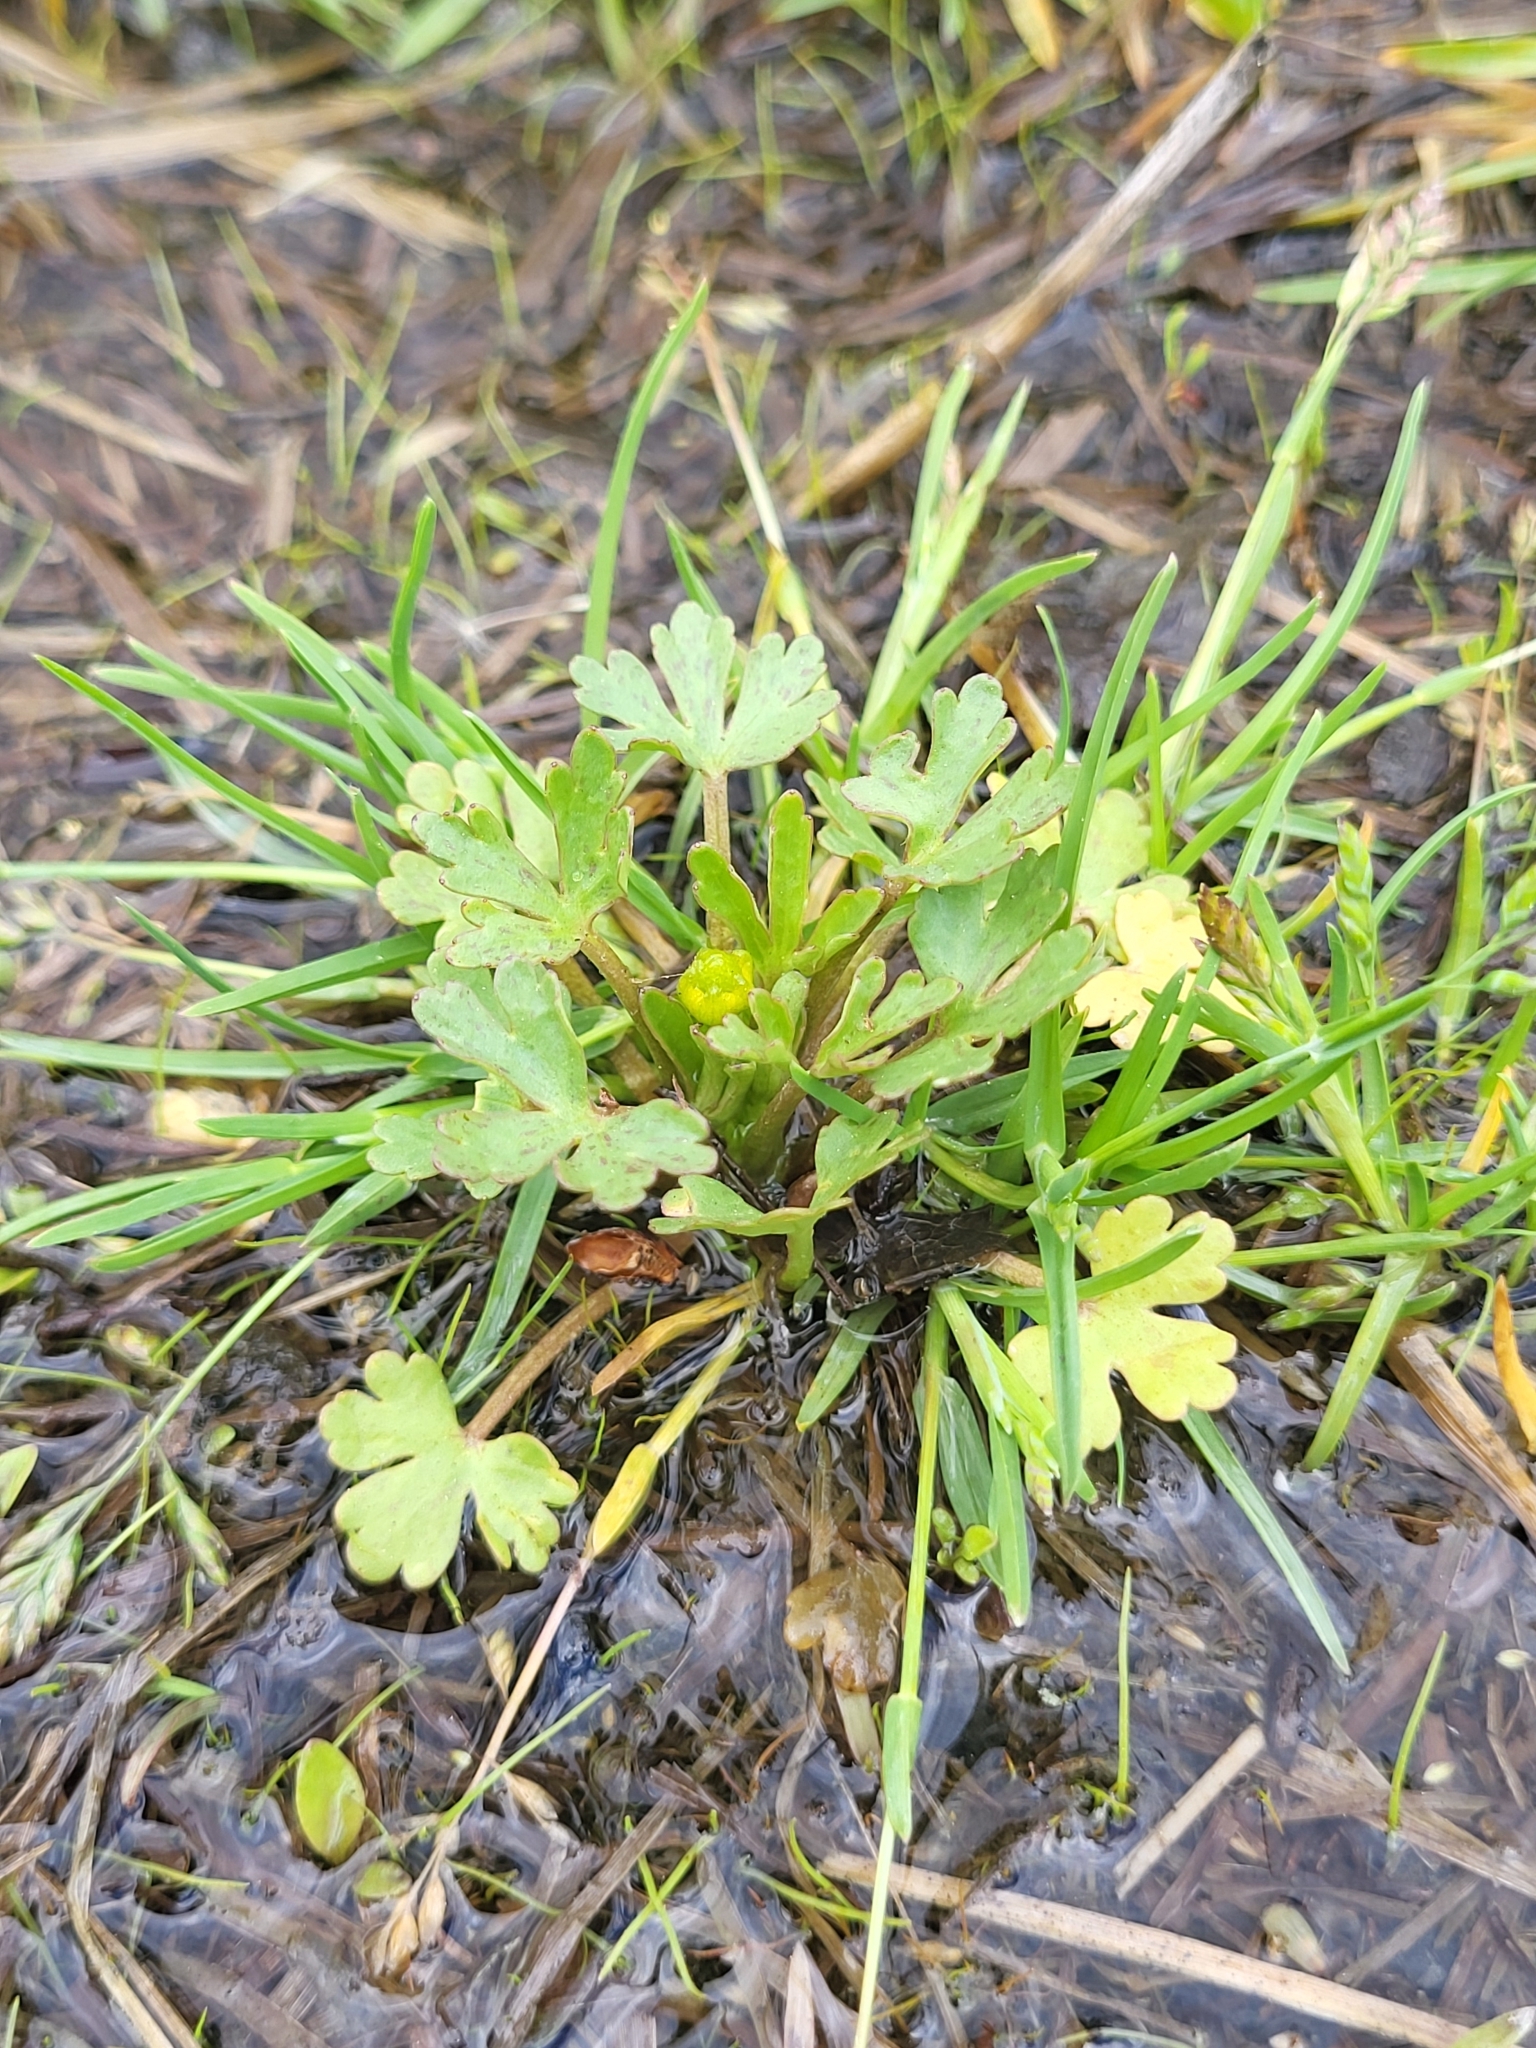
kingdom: Plantae
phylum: Tracheophyta
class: Magnoliopsida
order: Ranunculales
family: Ranunculaceae
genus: Ranunculus
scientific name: Ranunculus sceleratus
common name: Celery-leaved buttercup
